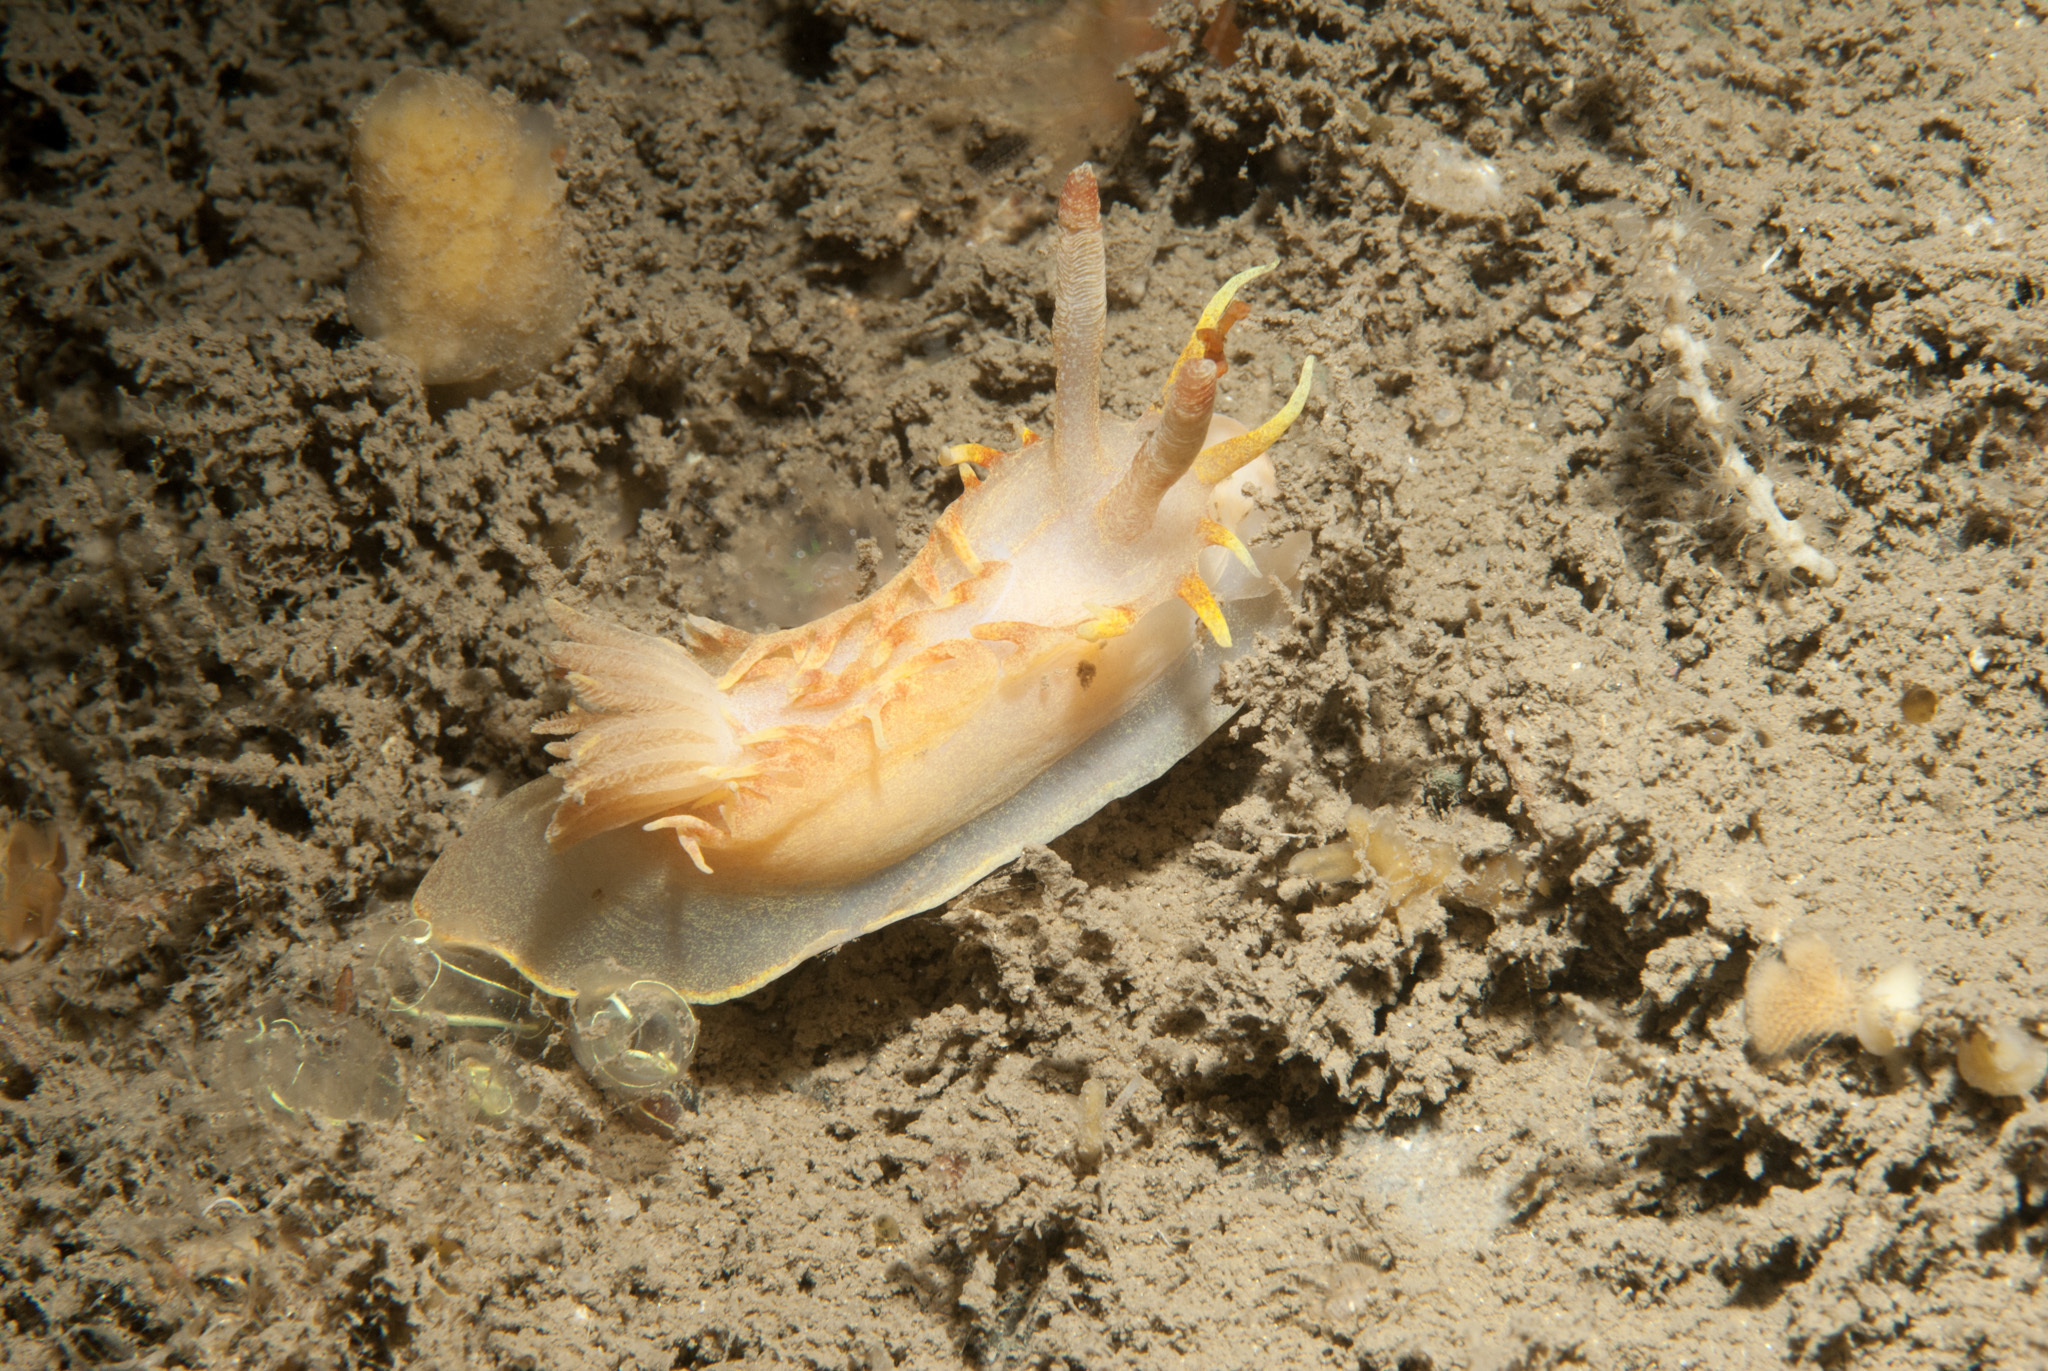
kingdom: Animalia
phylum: Mollusca
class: Gastropoda
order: Nudibranchia
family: Goniodorididae
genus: Okenia
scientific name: Okenia elegans
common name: Yellow skirt slug
